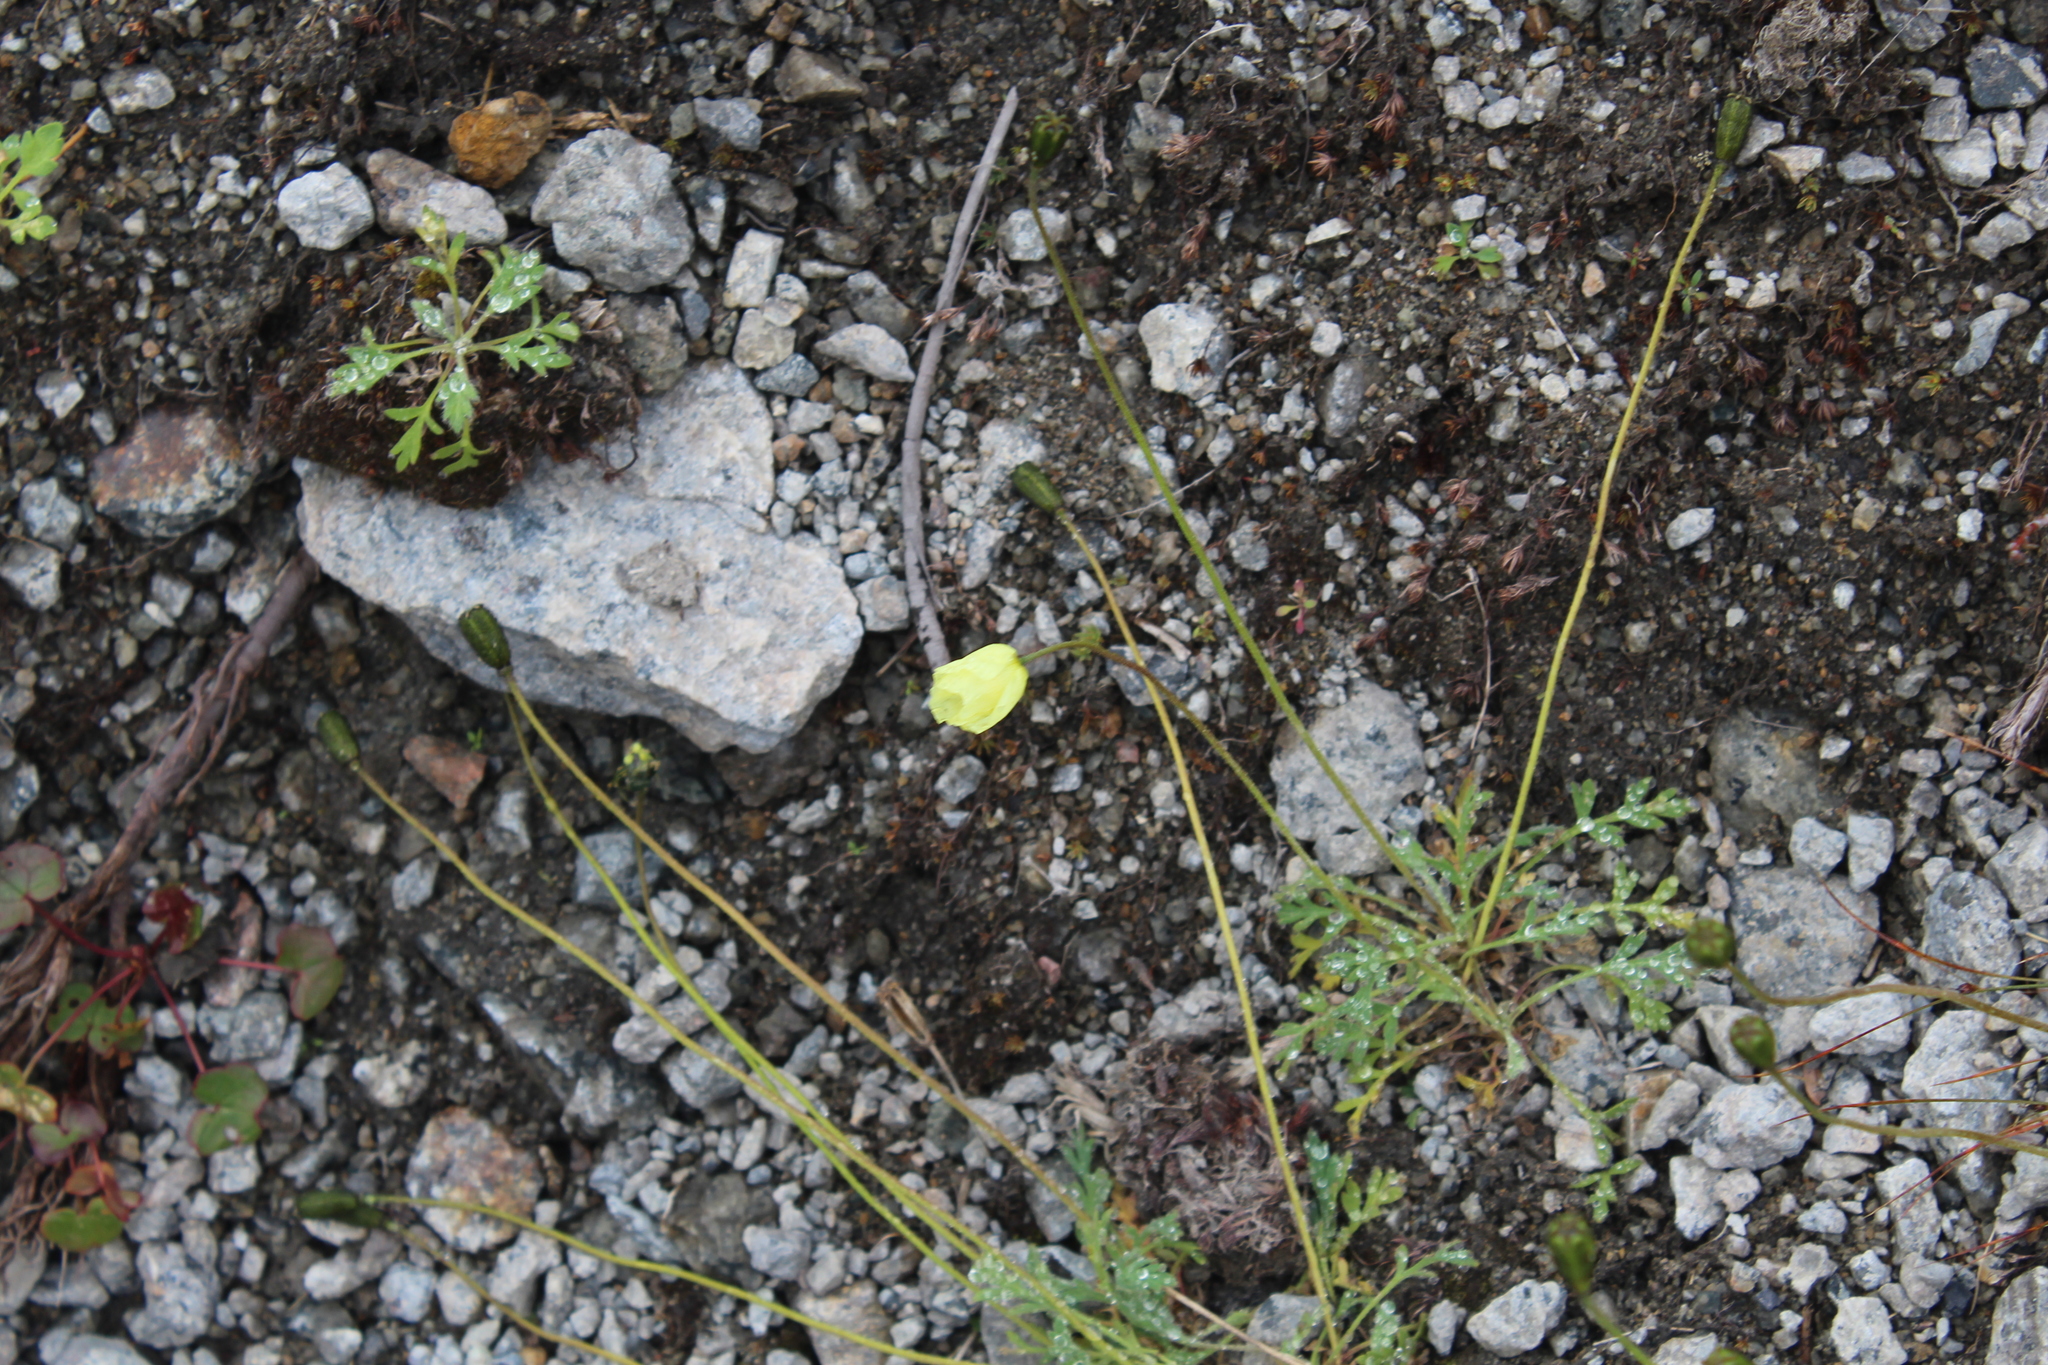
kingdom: Plantae
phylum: Tracheophyta
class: Magnoliopsida
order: Ranunculales
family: Papaveraceae
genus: Papaver
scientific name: Papaver lapponicum
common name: Lapland poppy
